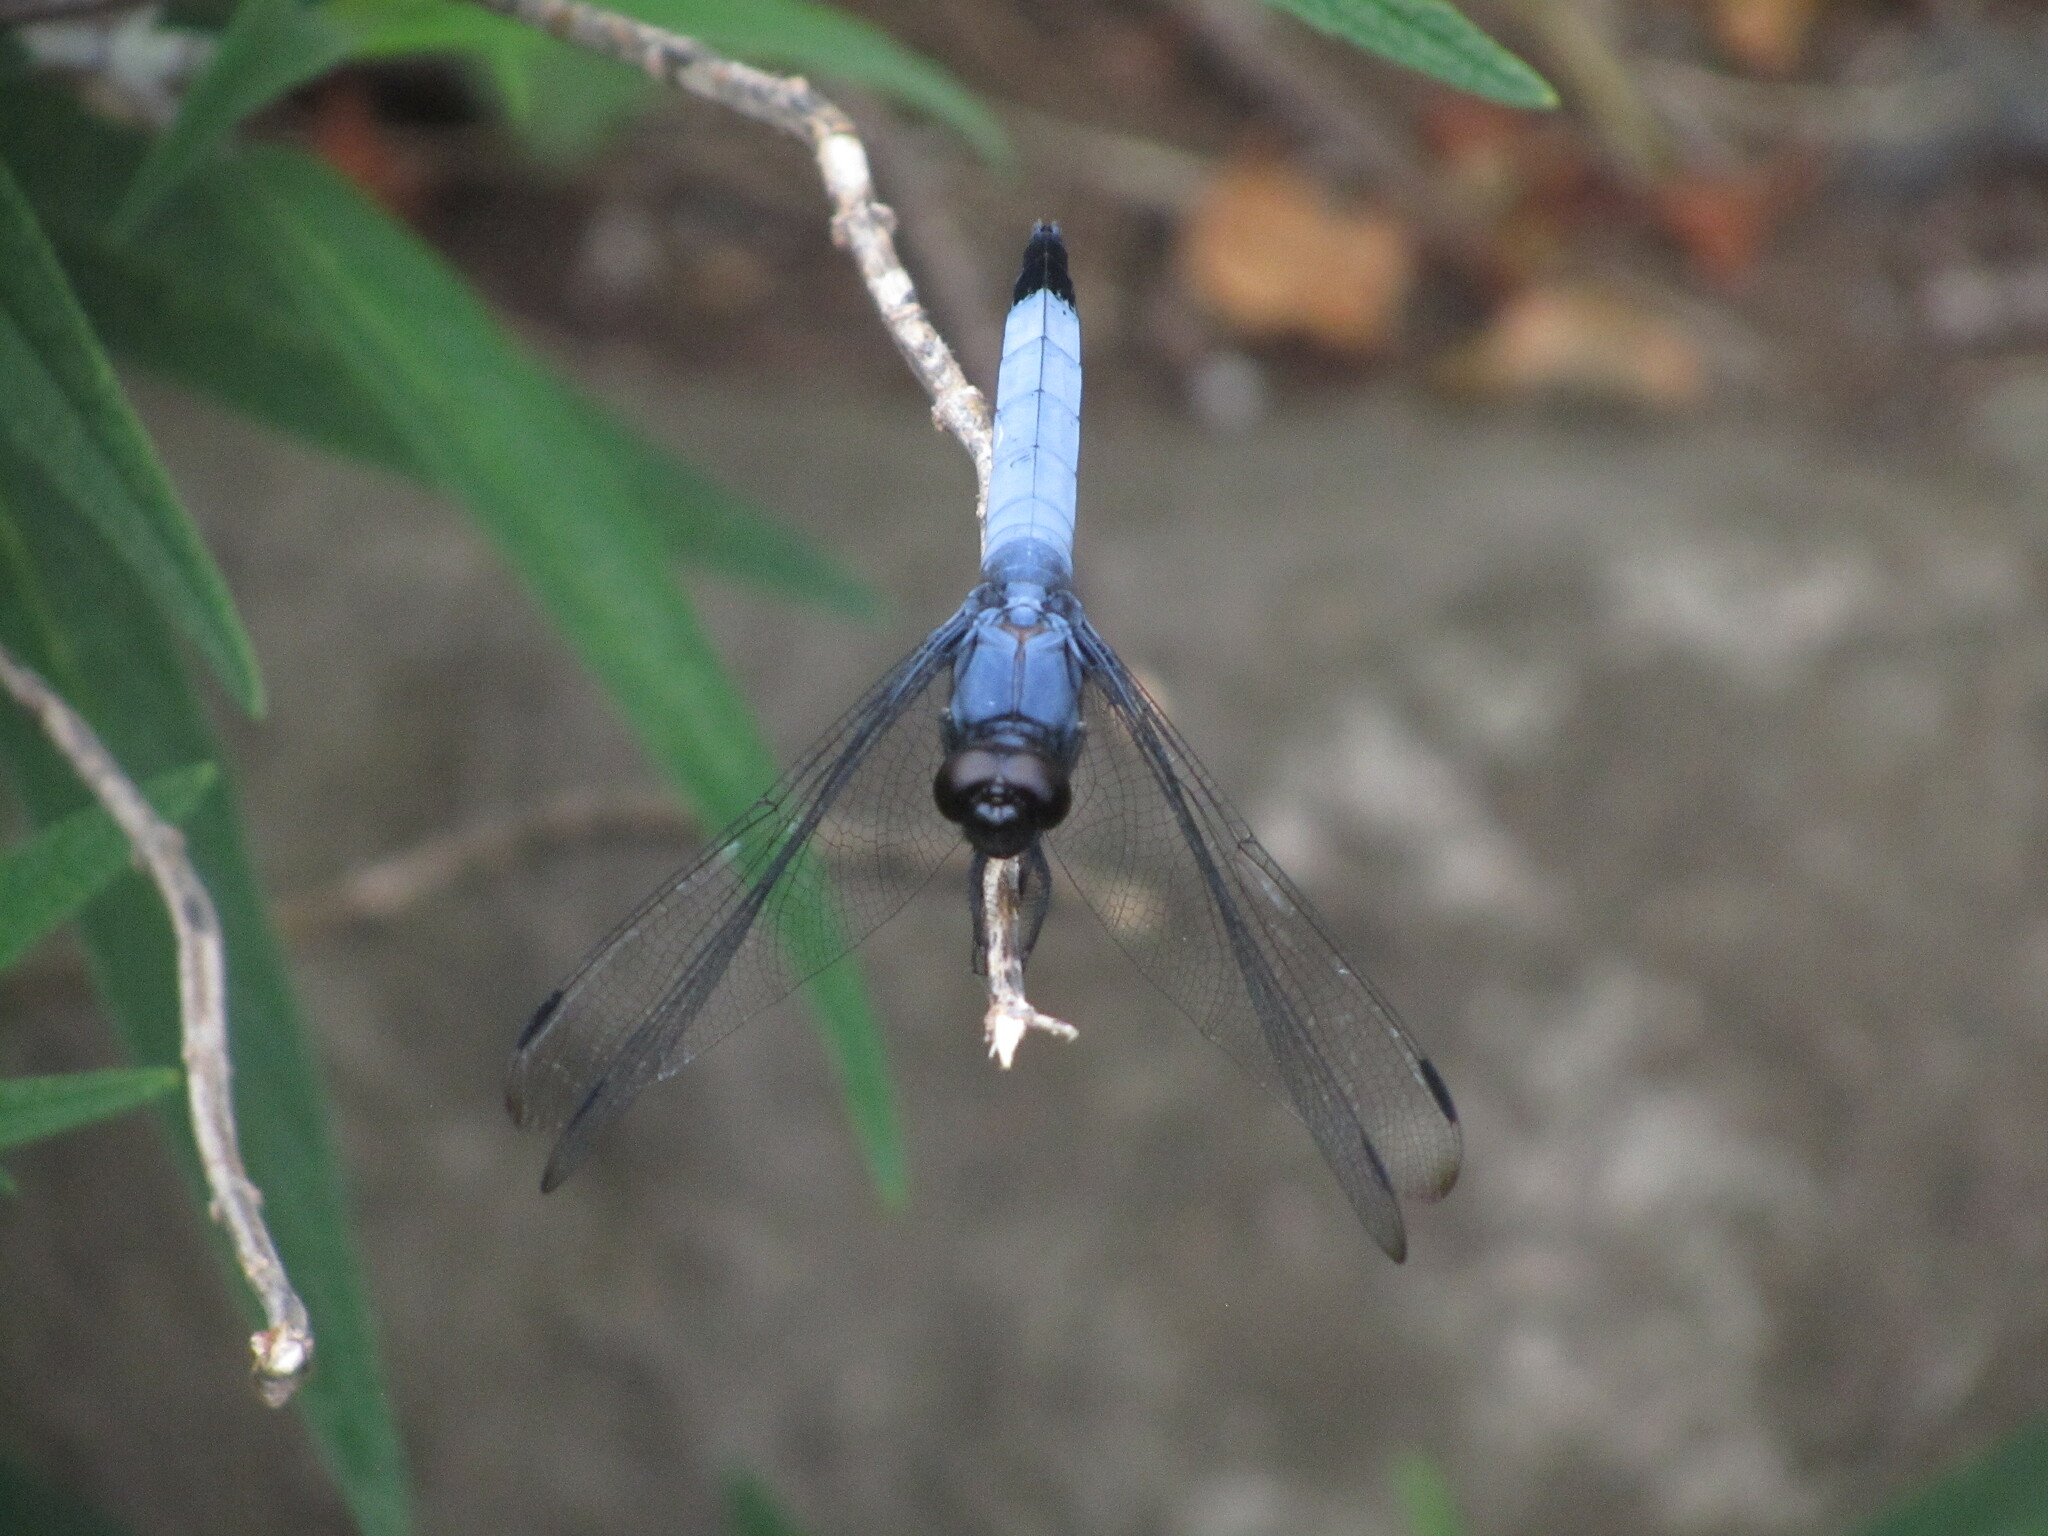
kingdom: Animalia
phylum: Arthropoda
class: Insecta
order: Odonata
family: Libellulidae
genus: Orthetrum
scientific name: Orthetrum melania
